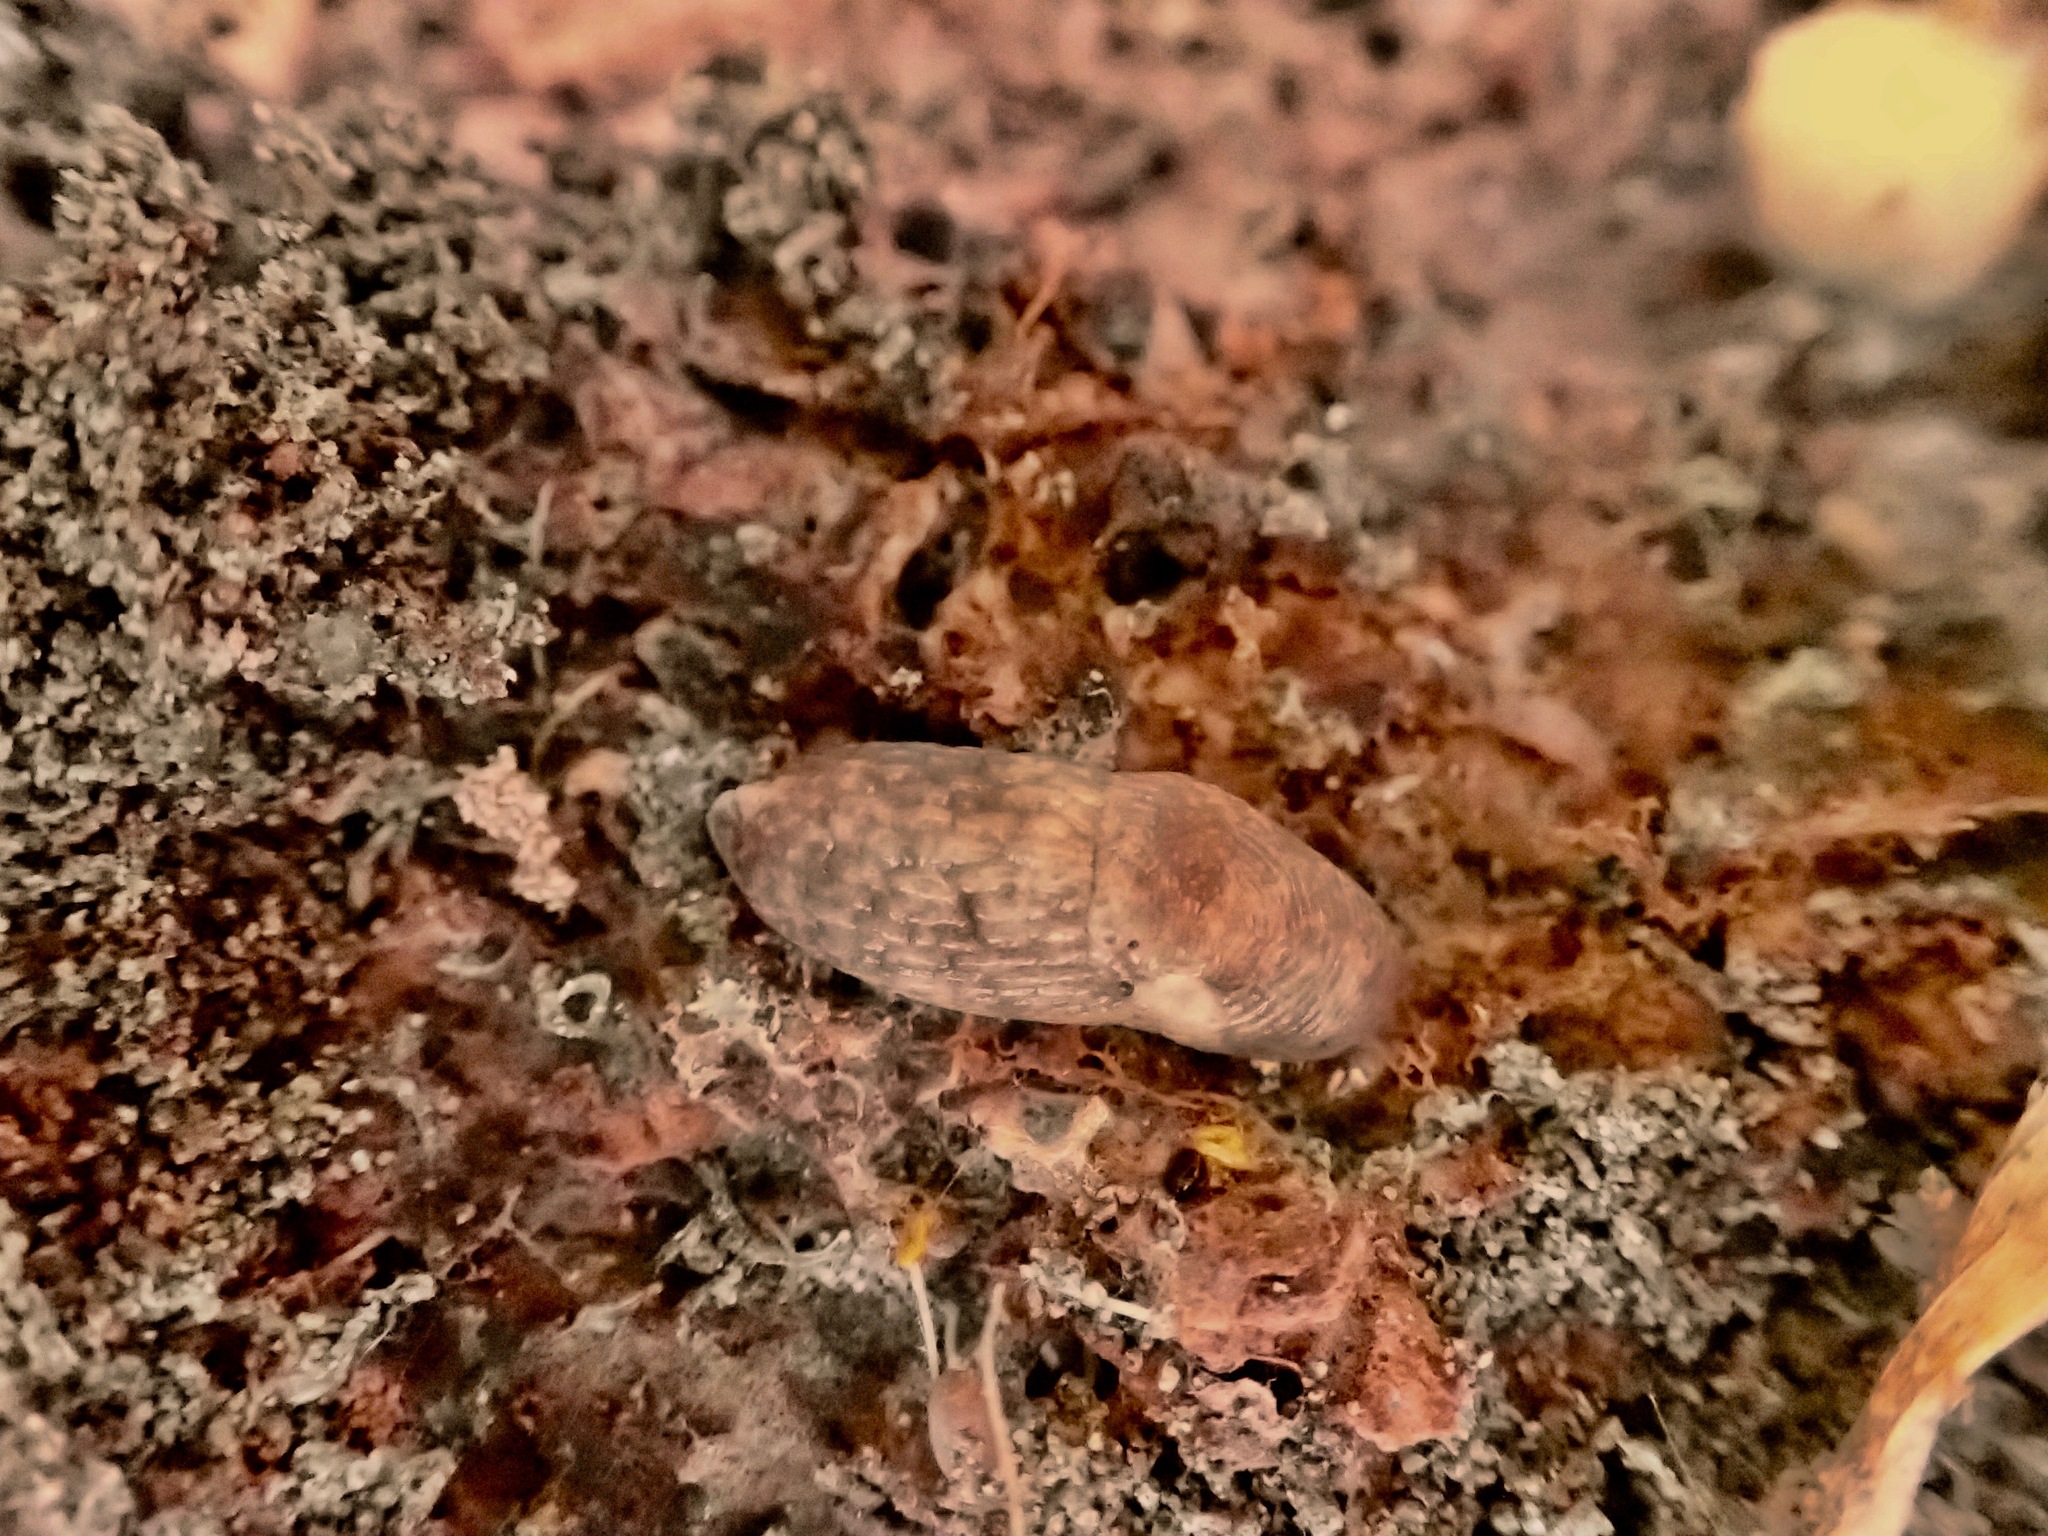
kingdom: Animalia
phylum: Mollusca
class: Gastropoda
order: Stylommatophora
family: Agriolimacidae
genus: Deroceras
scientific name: Deroceras reticulatum
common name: Gray field slug
